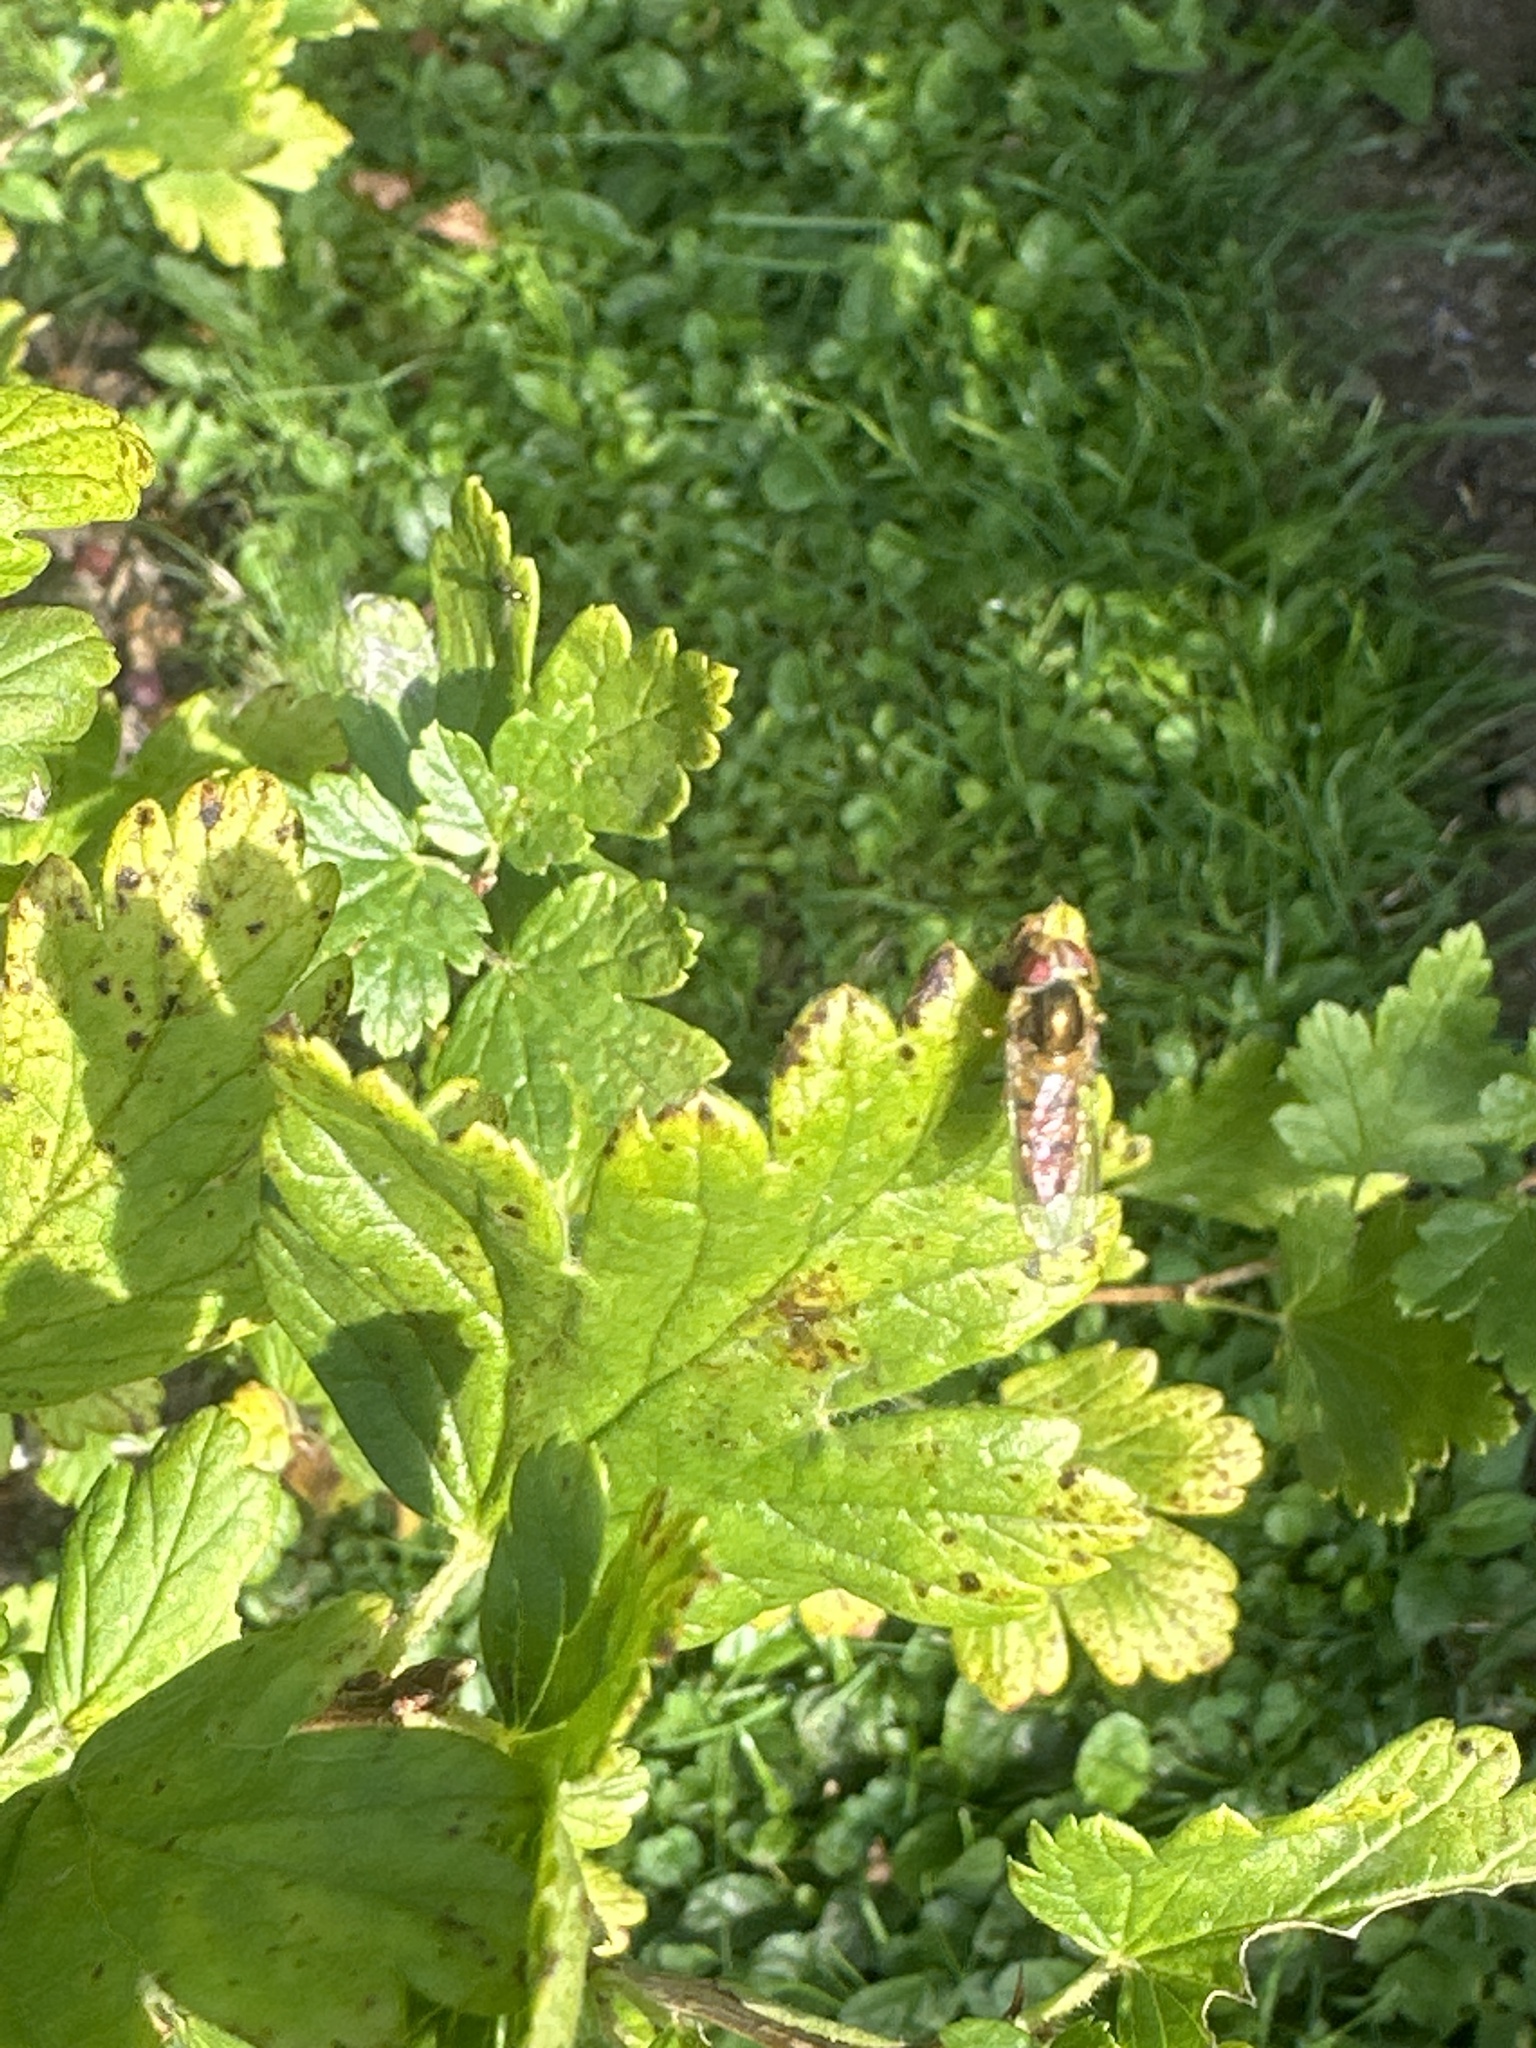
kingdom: Animalia
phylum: Arthropoda
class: Insecta
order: Diptera
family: Syrphidae
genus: Episyrphus
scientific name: Episyrphus balteatus
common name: Marmalade hoverfly
